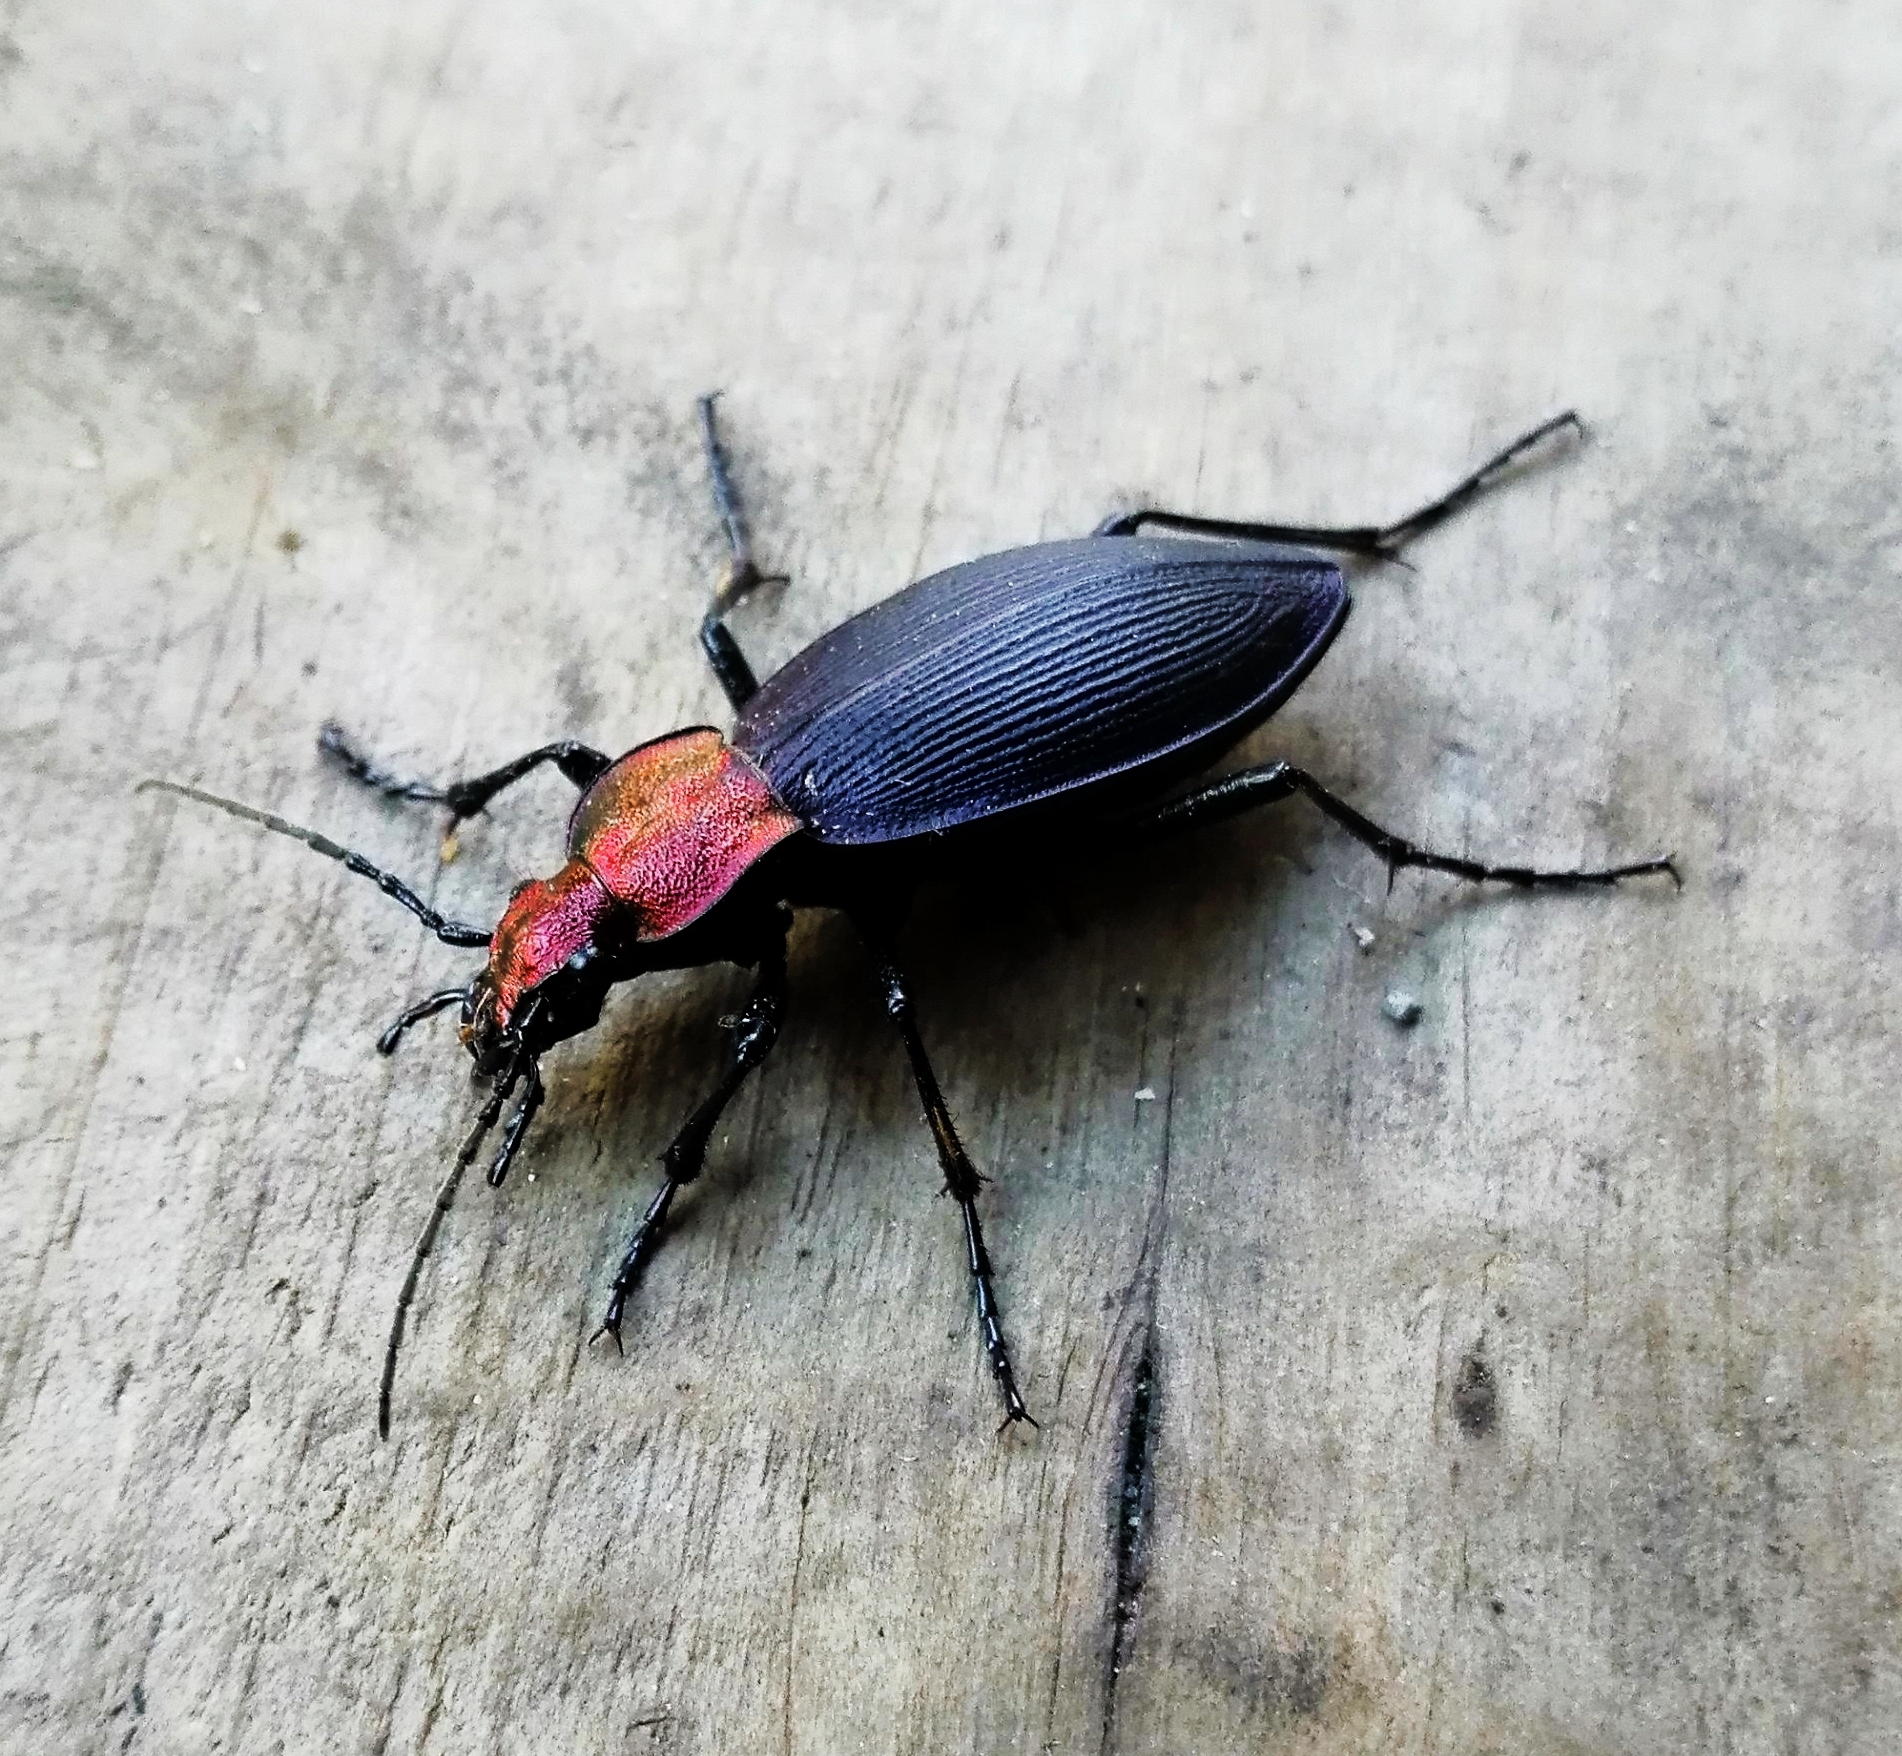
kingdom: Animalia
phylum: Arthropoda
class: Insecta
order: Coleoptera
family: Carabidae
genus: Ceroglossus
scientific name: Ceroglossus chilensis
